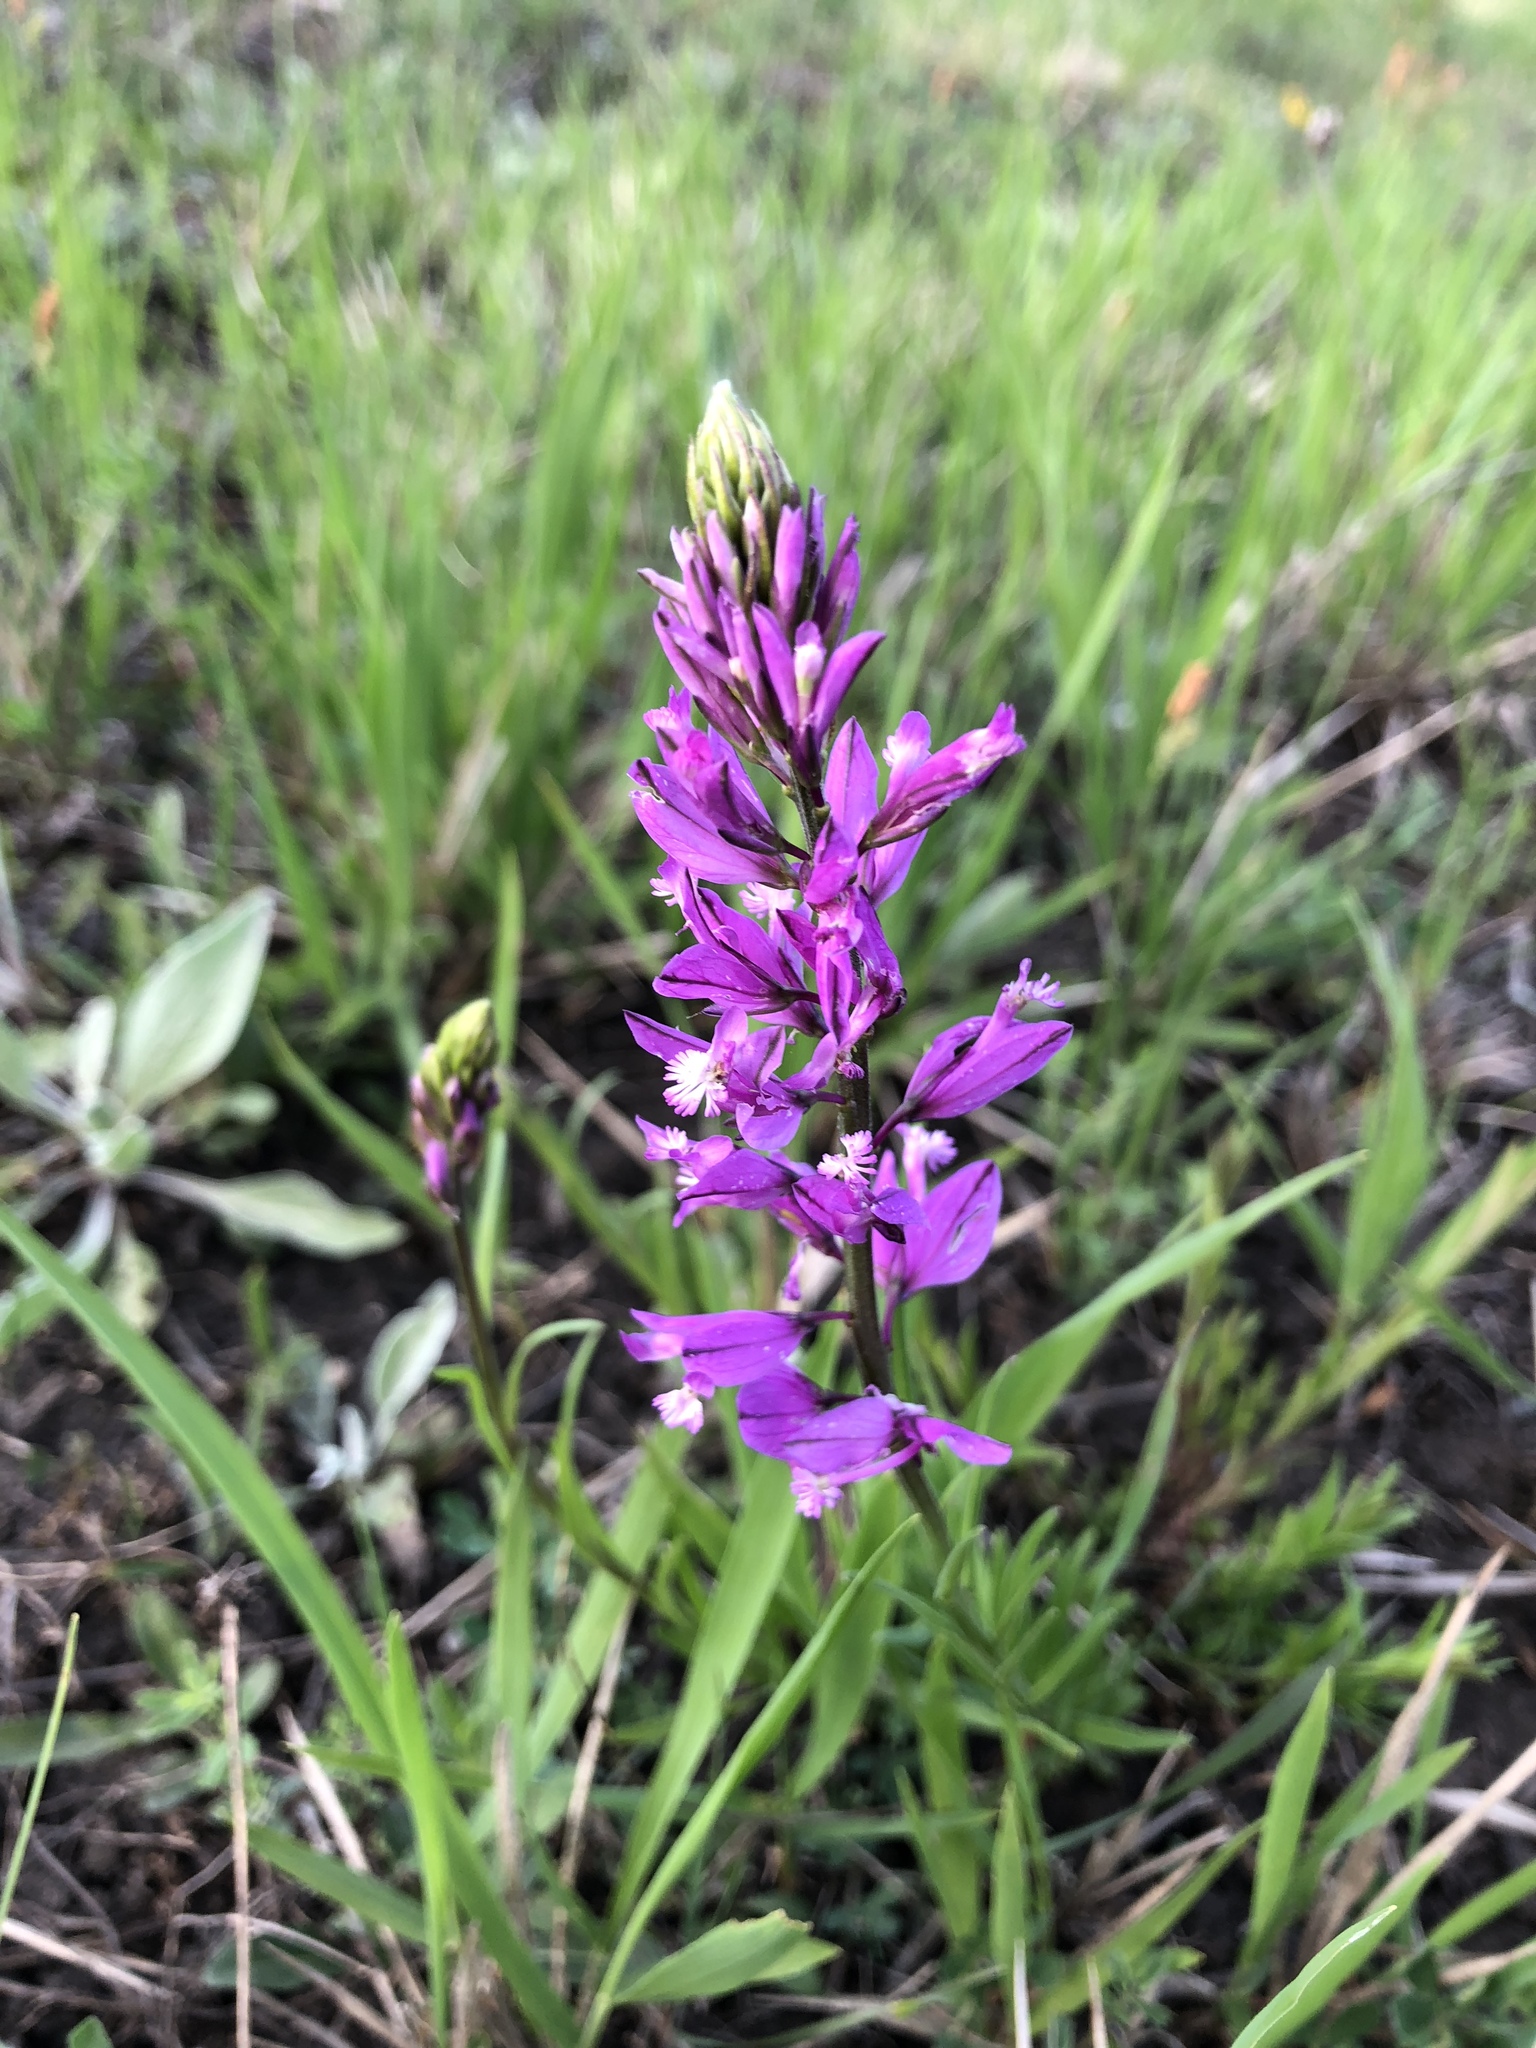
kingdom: Plantae
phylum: Tracheophyta
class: Magnoliopsida
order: Fabales
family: Polygalaceae
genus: Polygala
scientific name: Polygala vulgaris
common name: Common milkwort
